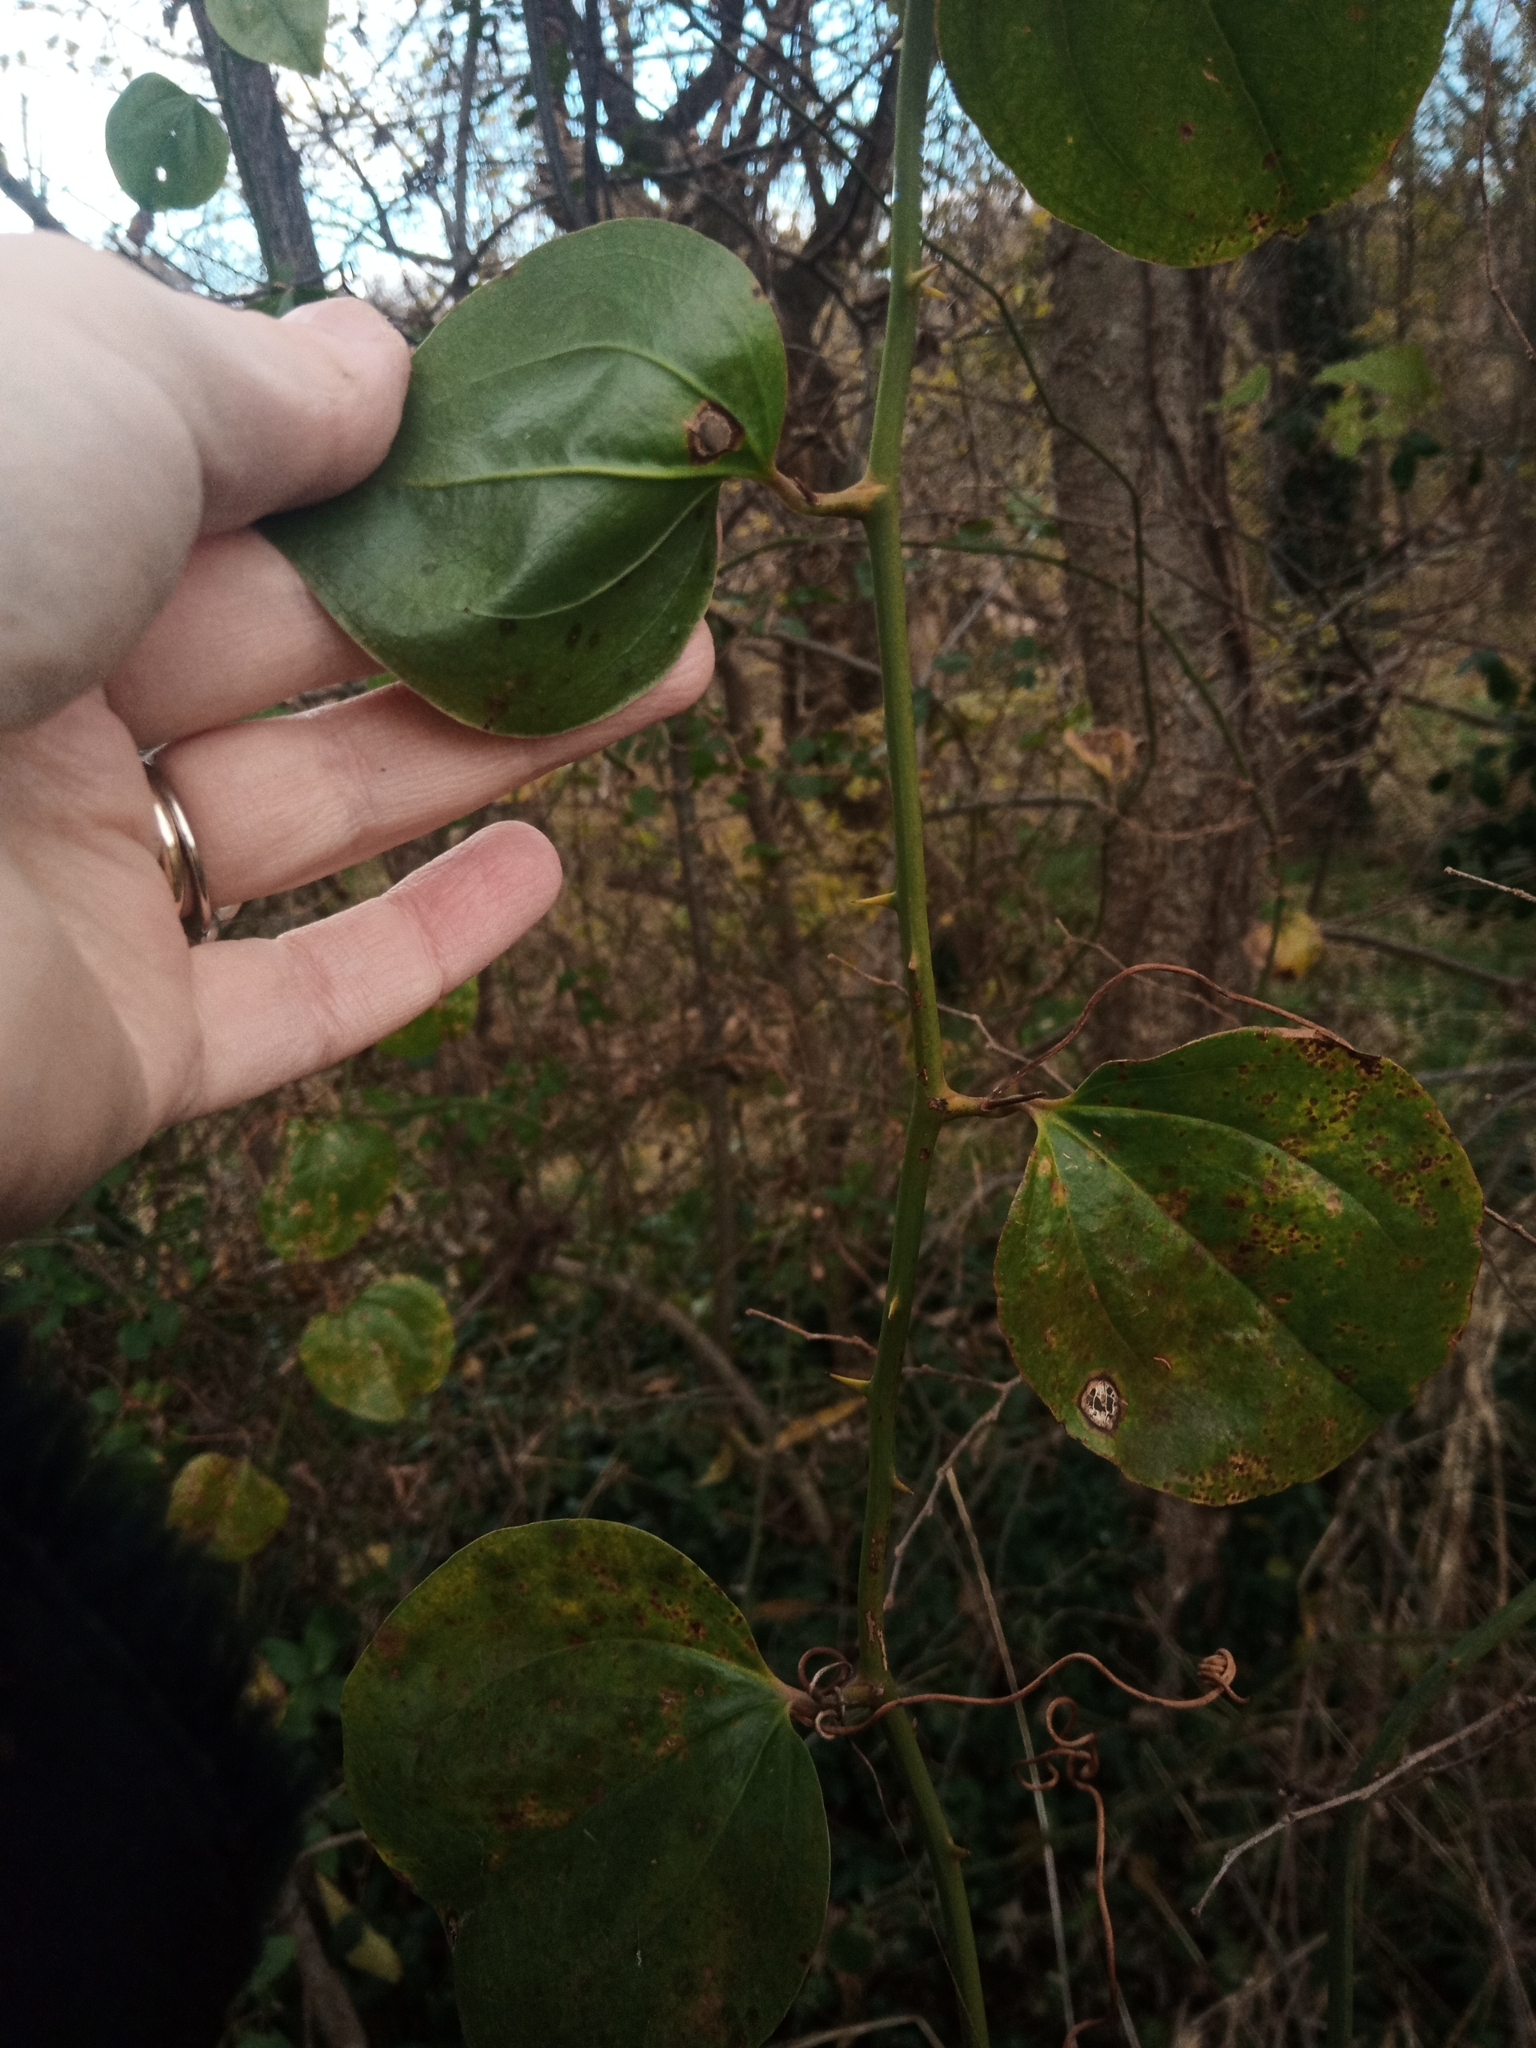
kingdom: Plantae
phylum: Tracheophyta
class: Liliopsida
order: Liliales
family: Smilacaceae
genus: Smilax
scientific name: Smilax rotundifolia
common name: Bullbriar
